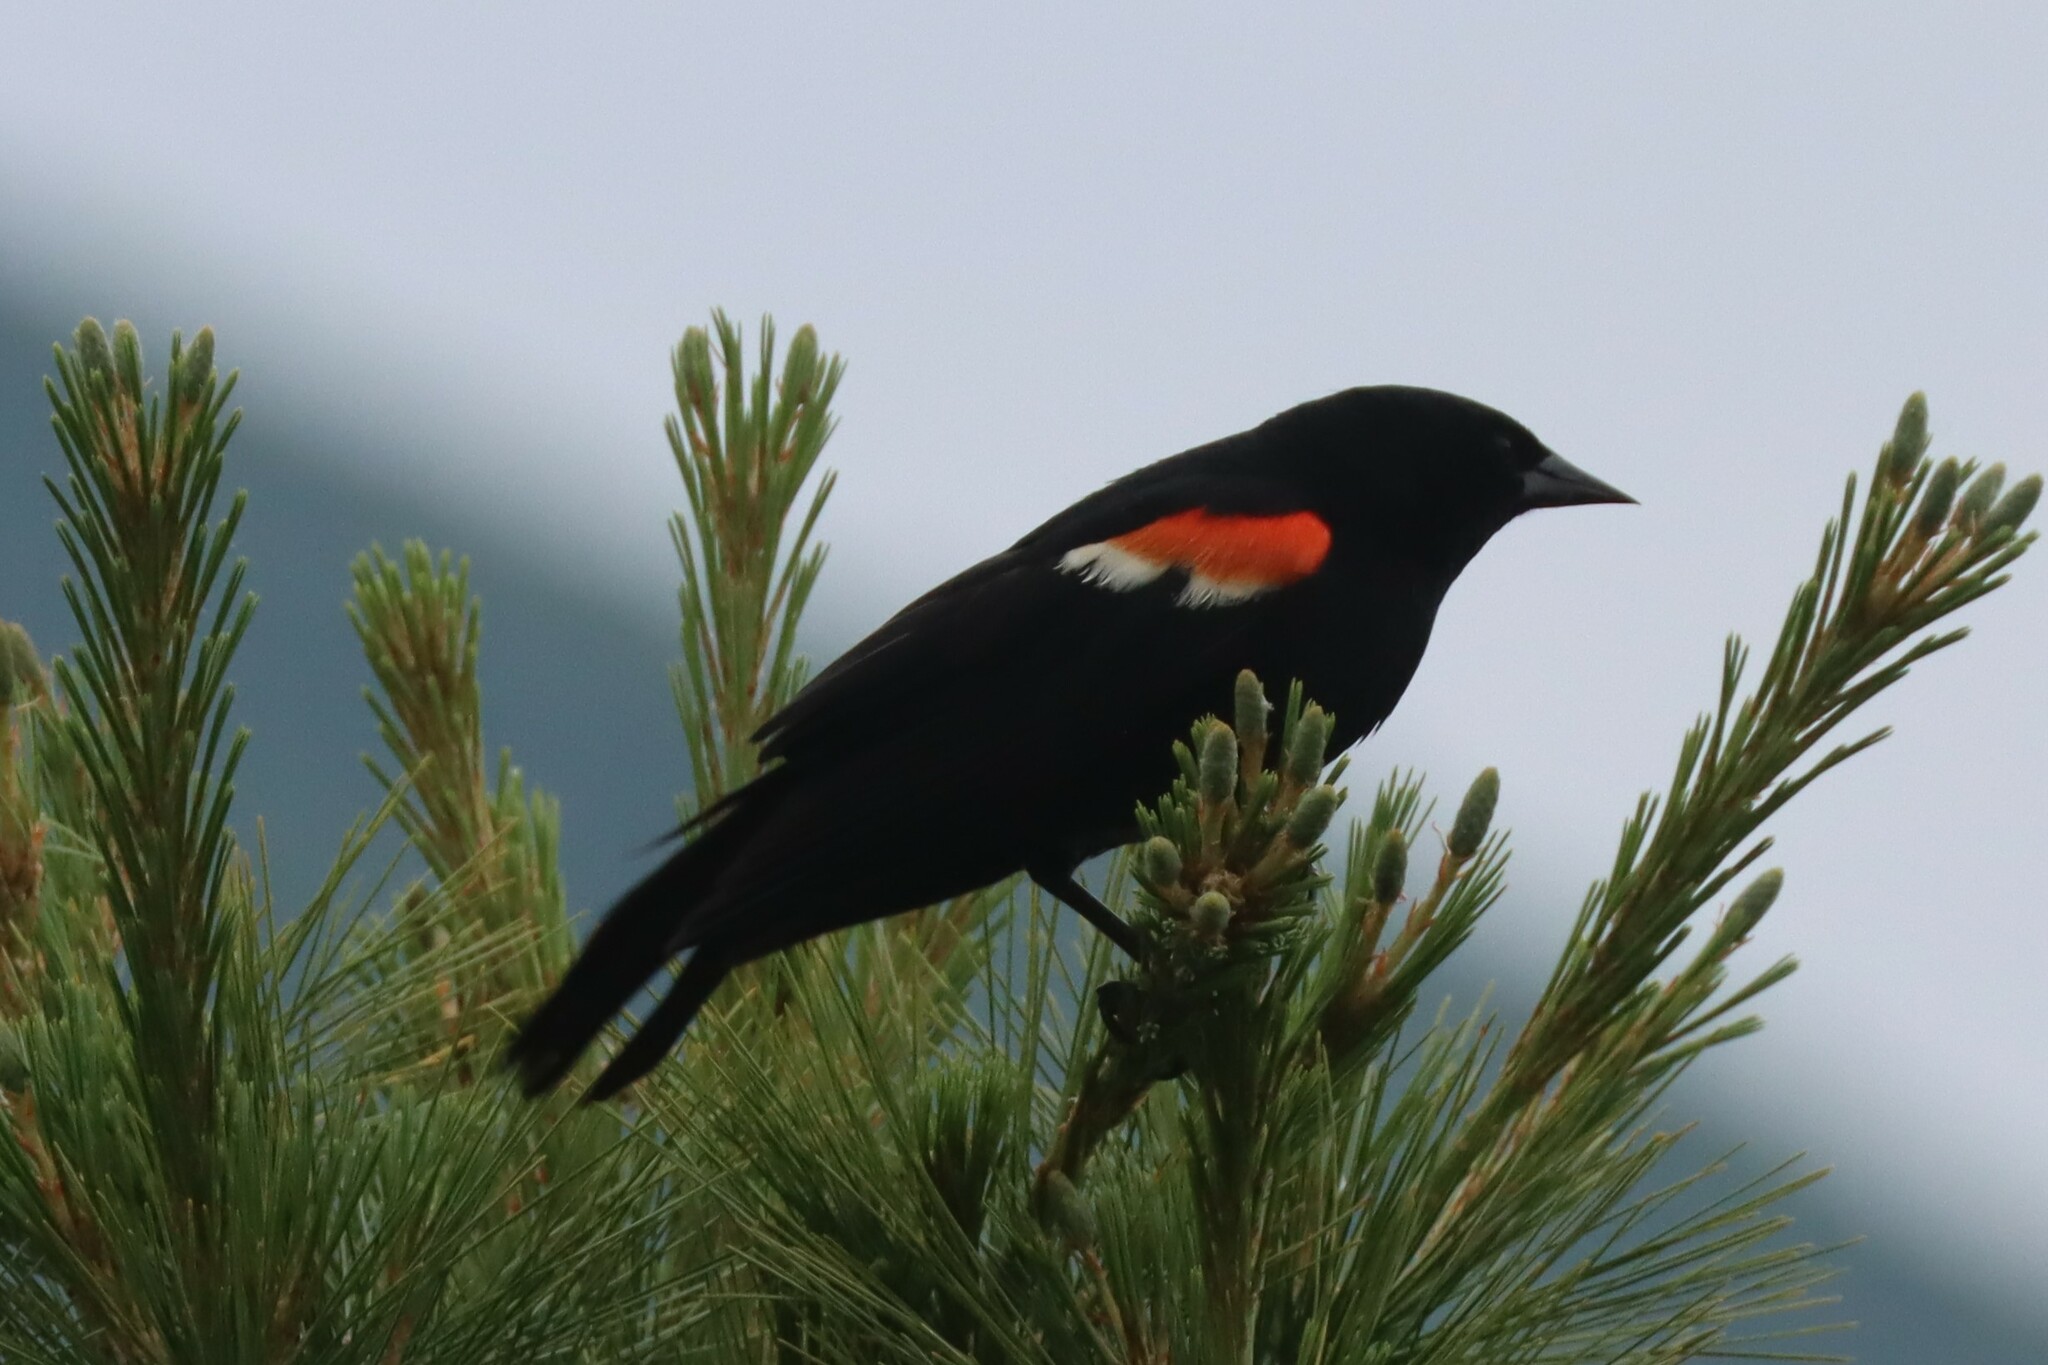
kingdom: Animalia
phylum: Chordata
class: Aves
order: Passeriformes
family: Icteridae
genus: Agelaius
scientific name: Agelaius phoeniceus
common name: Red-winged blackbird
